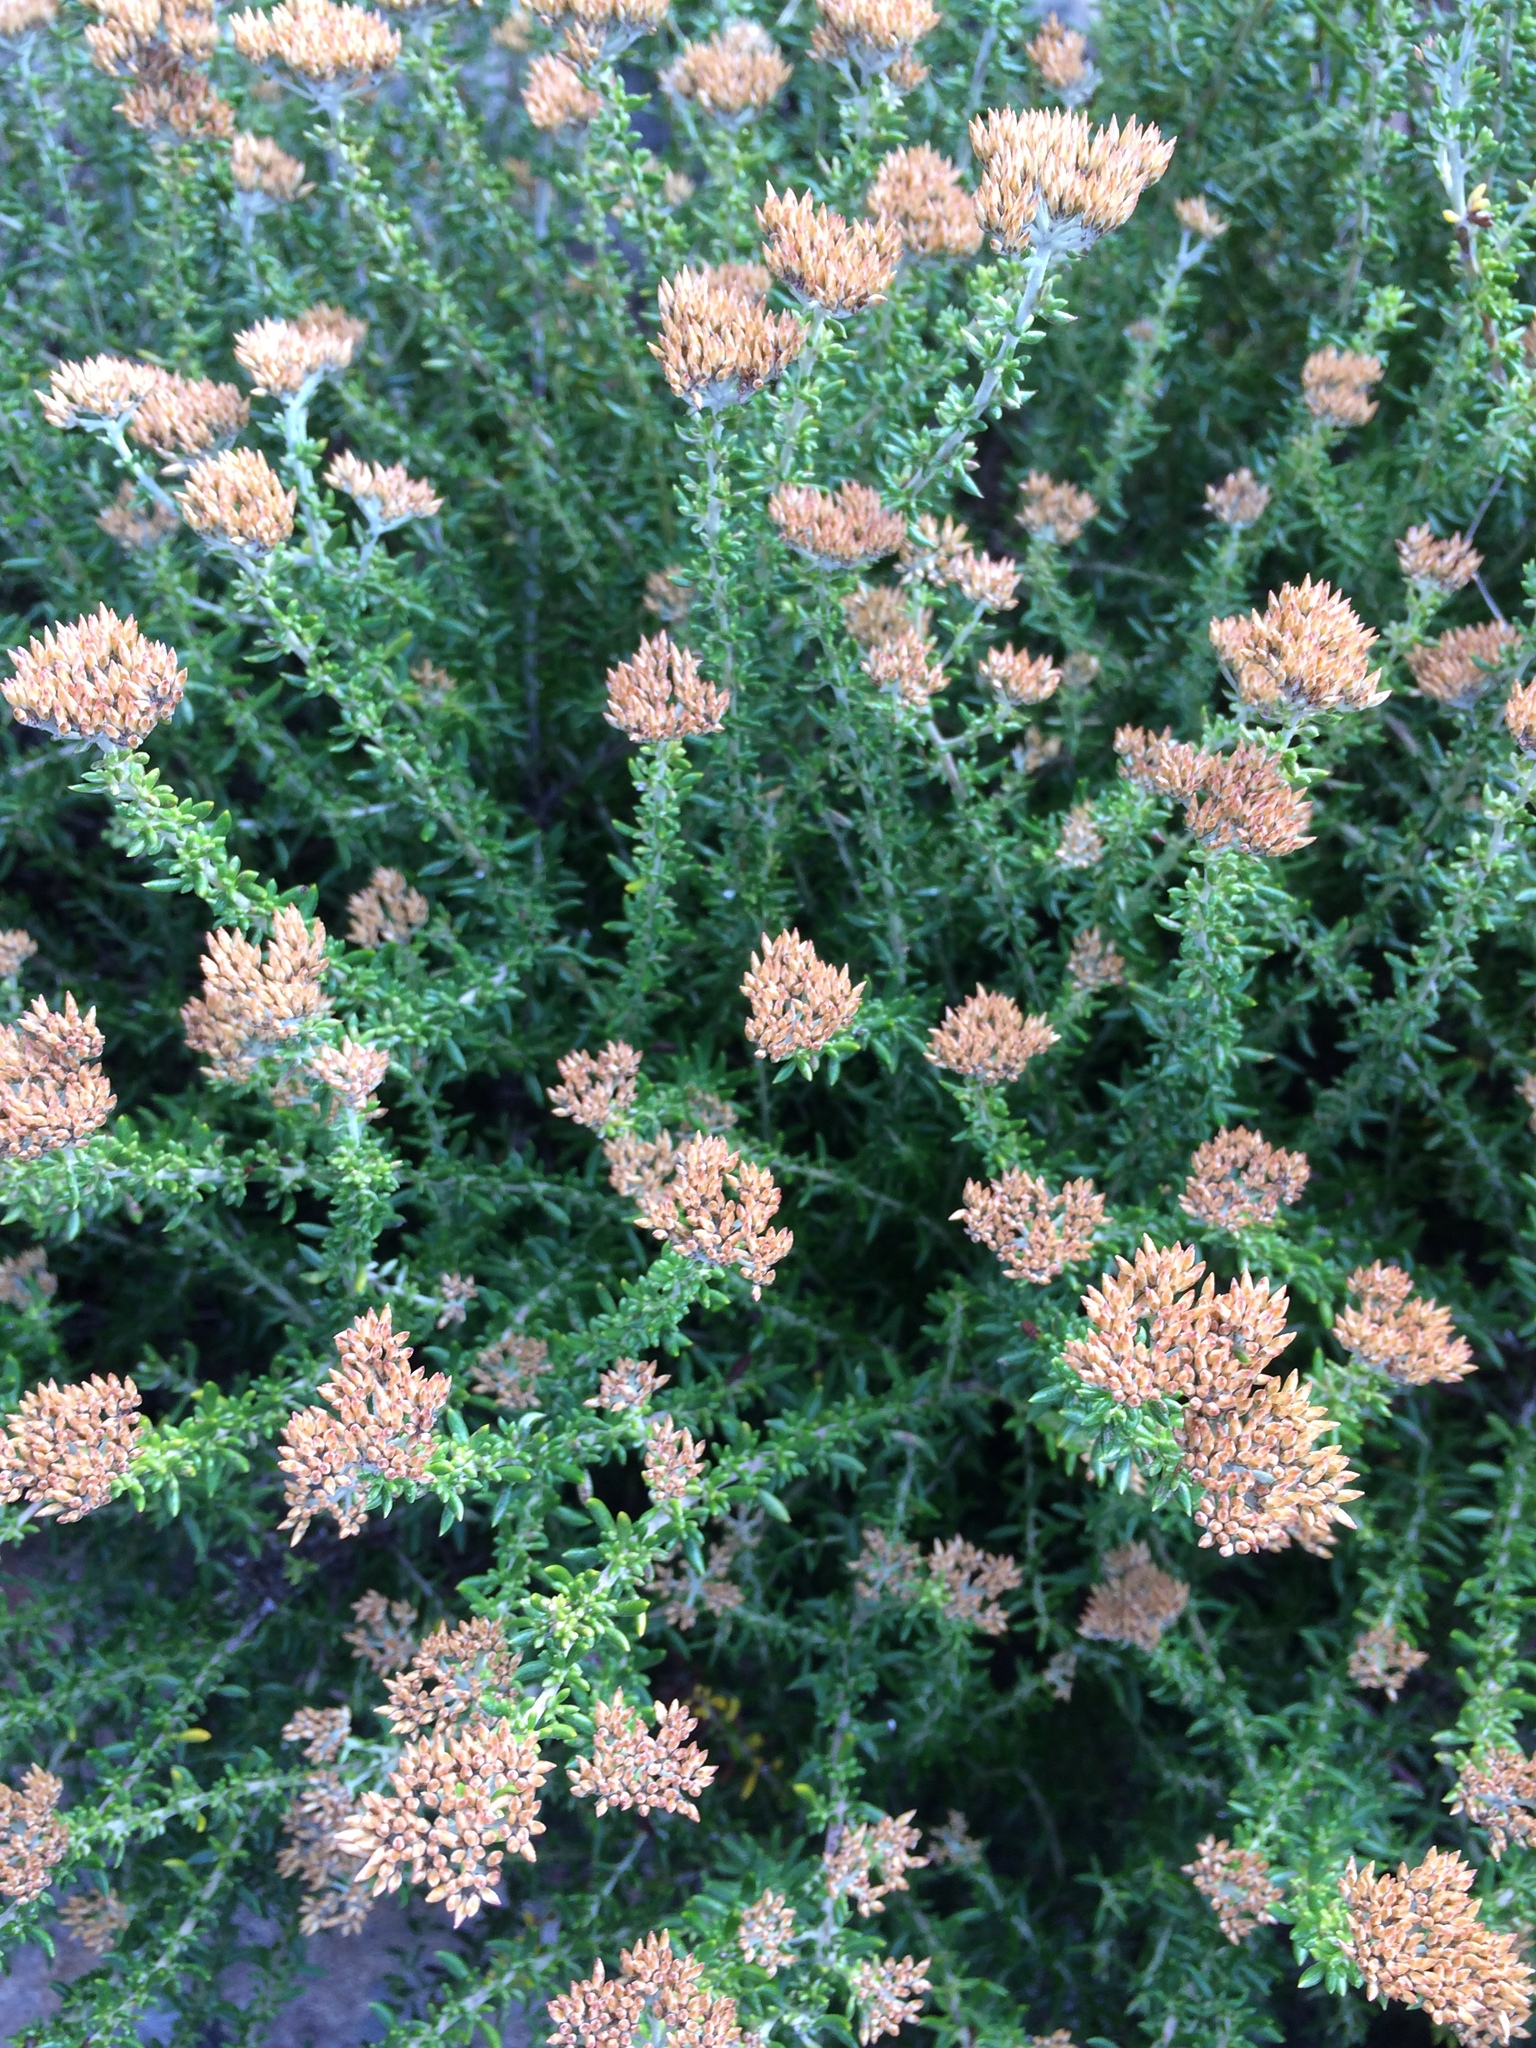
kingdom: Plantae
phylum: Tracheophyta
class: Magnoliopsida
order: Asterales
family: Asteraceae
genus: Metalasia
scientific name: Metalasia densa
